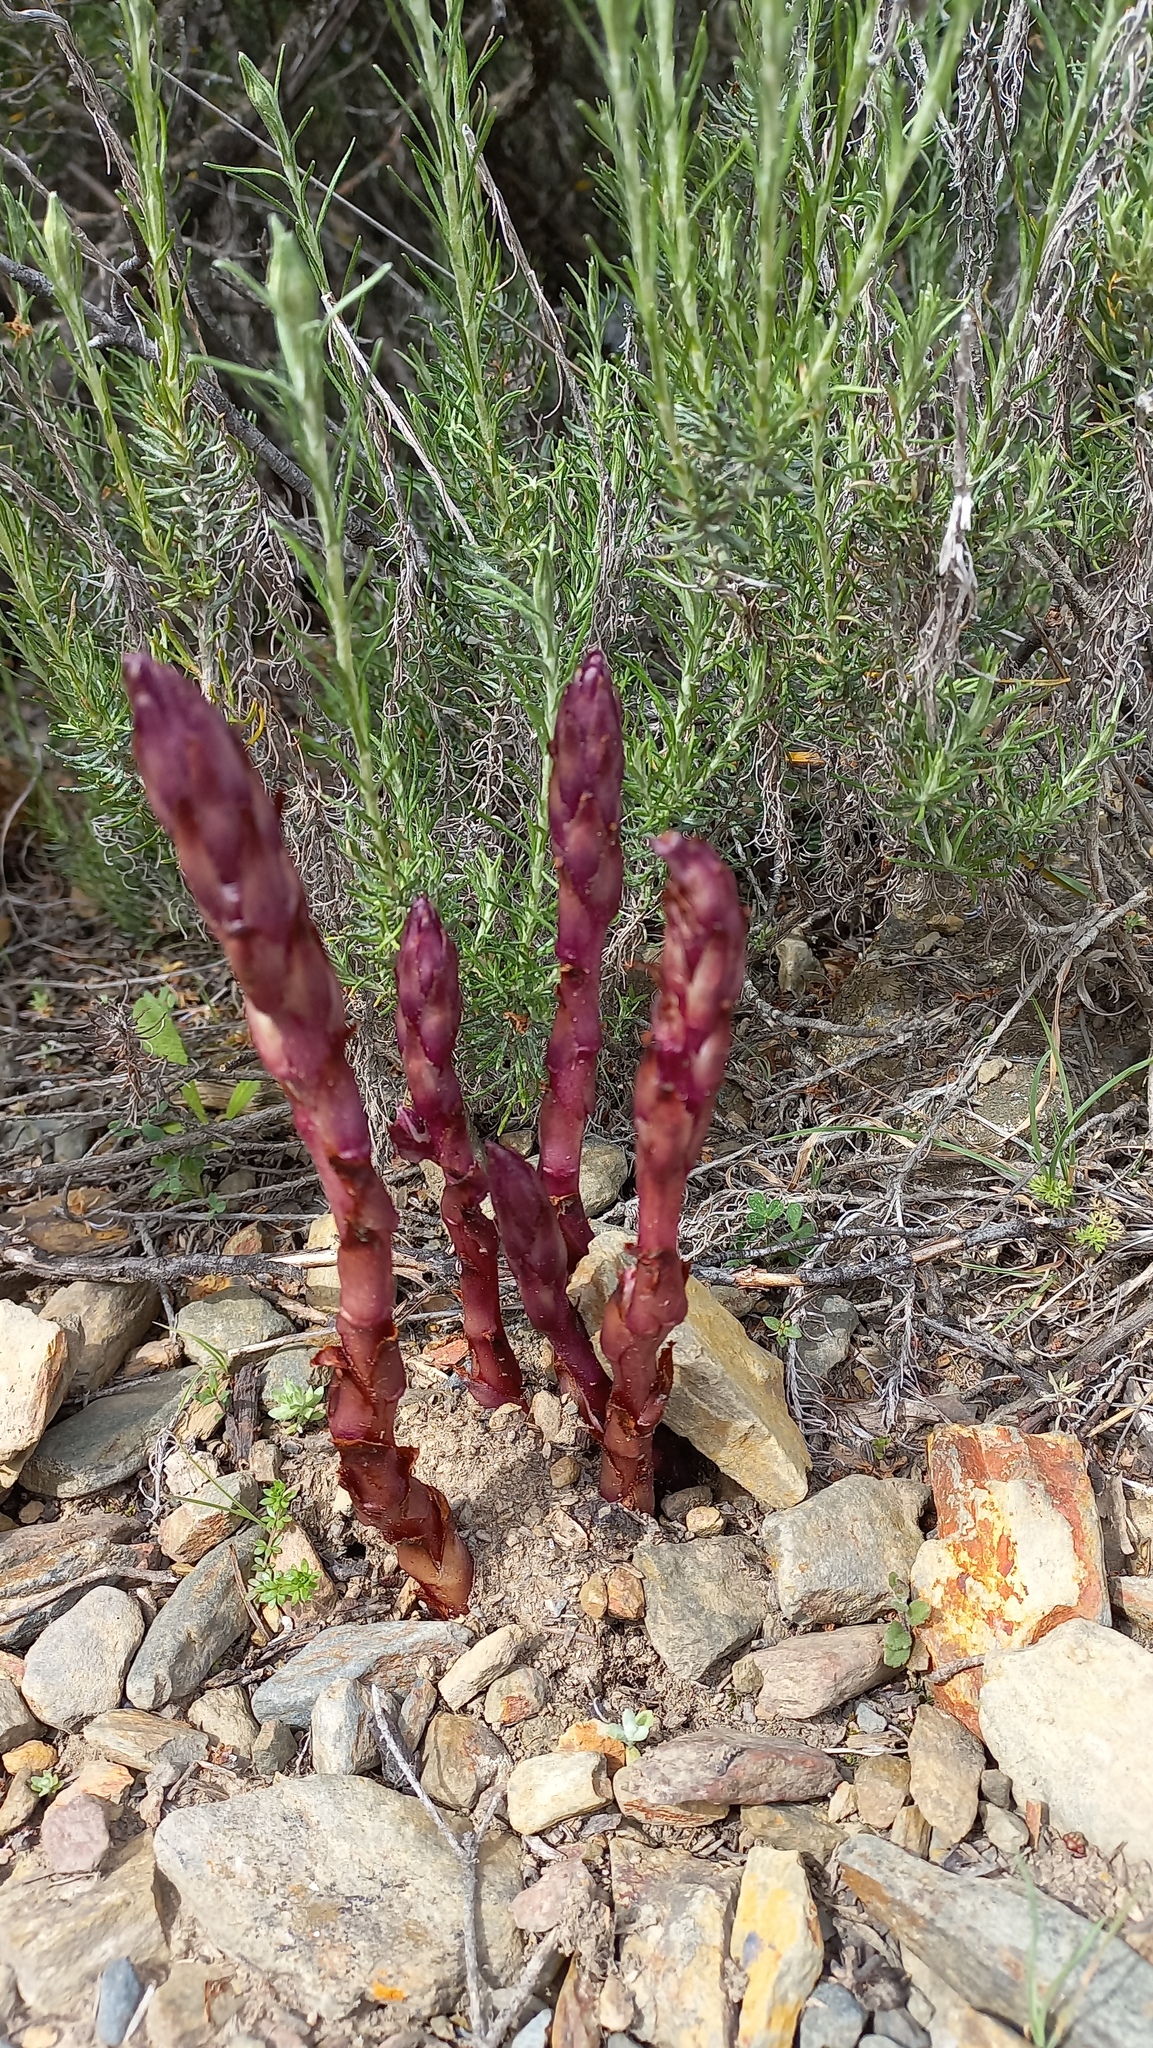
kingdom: Plantae
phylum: Tracheophyta
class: Magnoliopsida
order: Lamiales
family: Orobanchaceae
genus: Boulardia
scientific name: Boulardia latisquama
